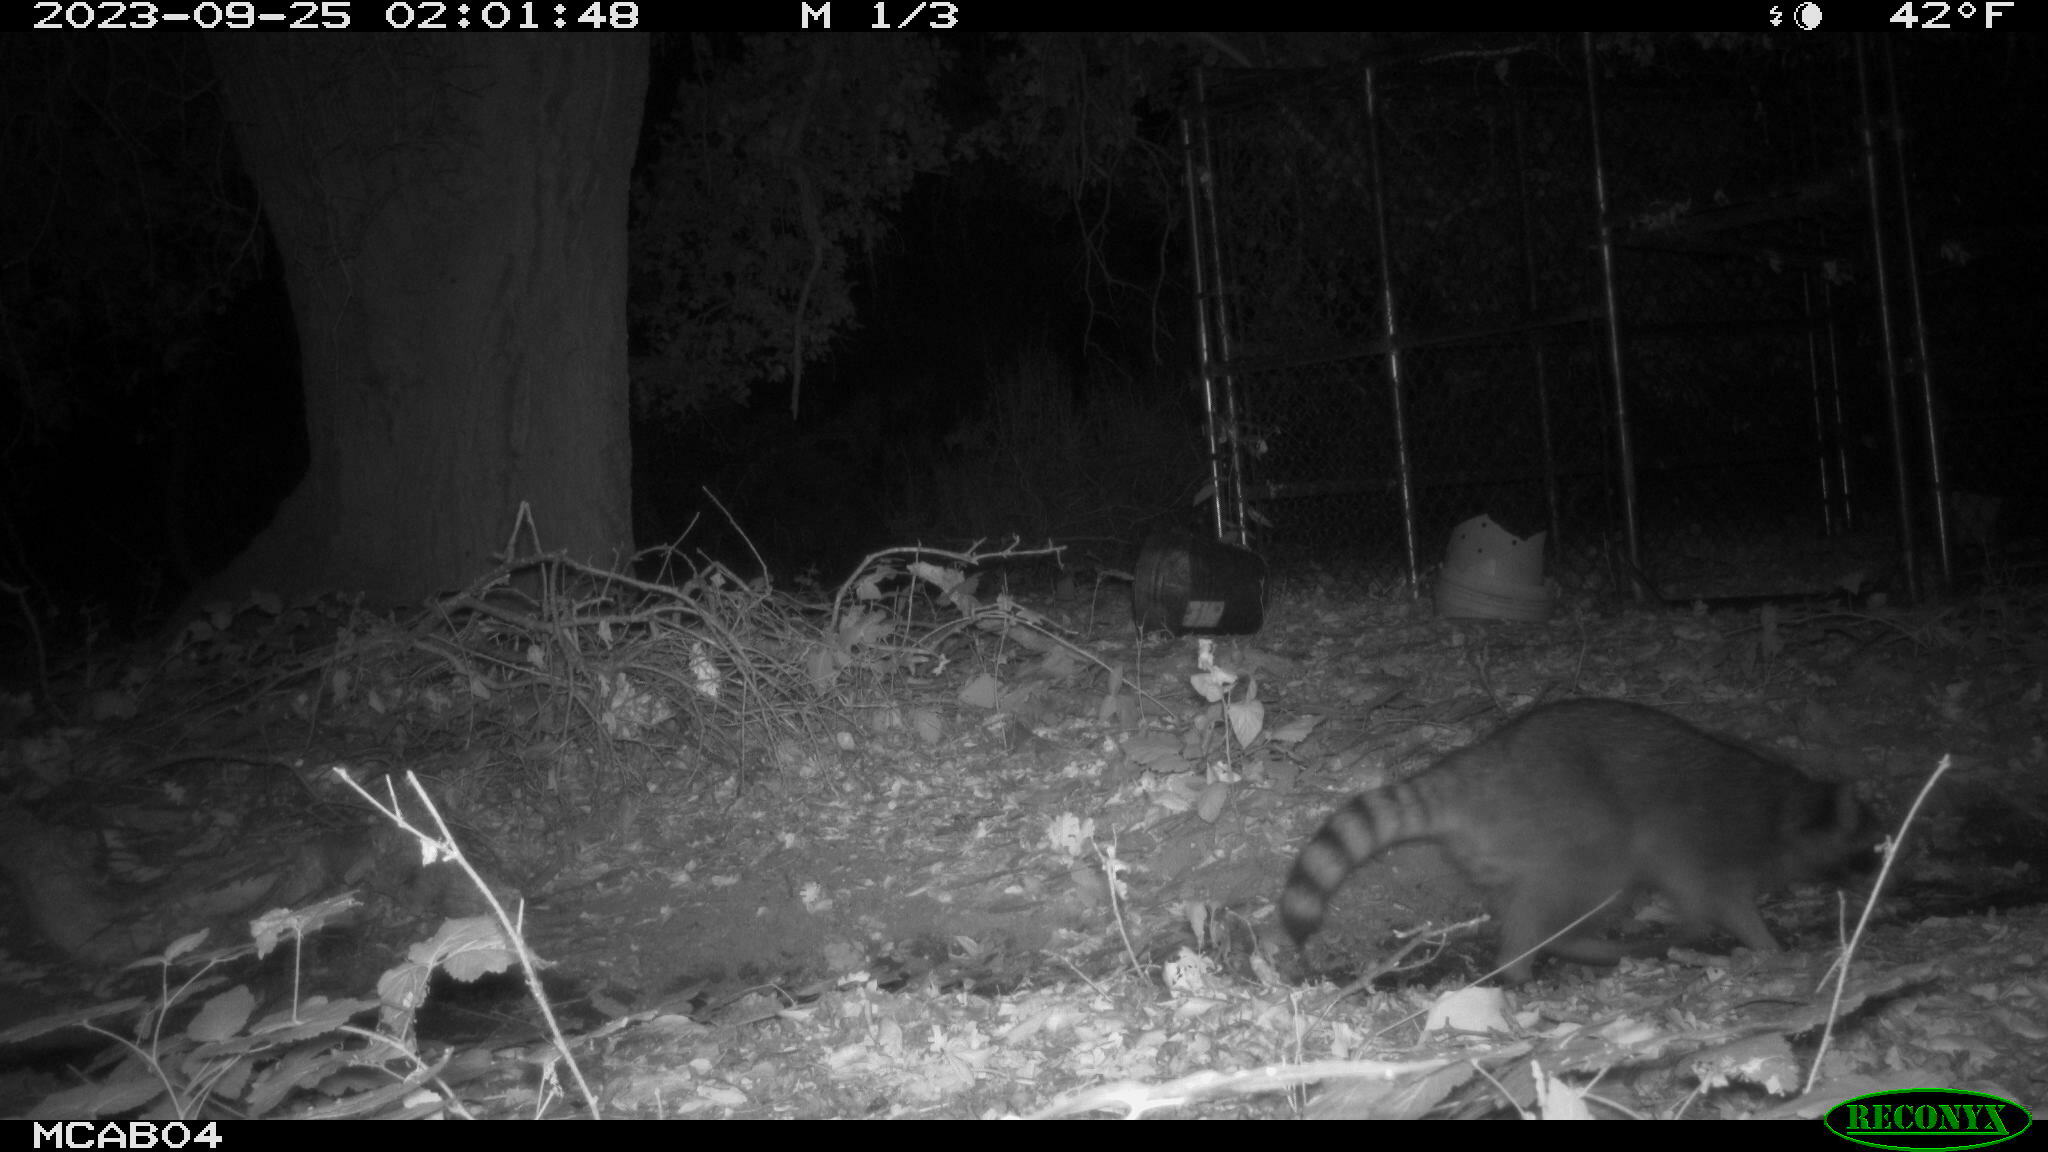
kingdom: Animalia
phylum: Chordata
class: Mammalia
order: Carnivora
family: Procyonidae
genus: Procyon
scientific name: Procyon lotor
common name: Raccoon
